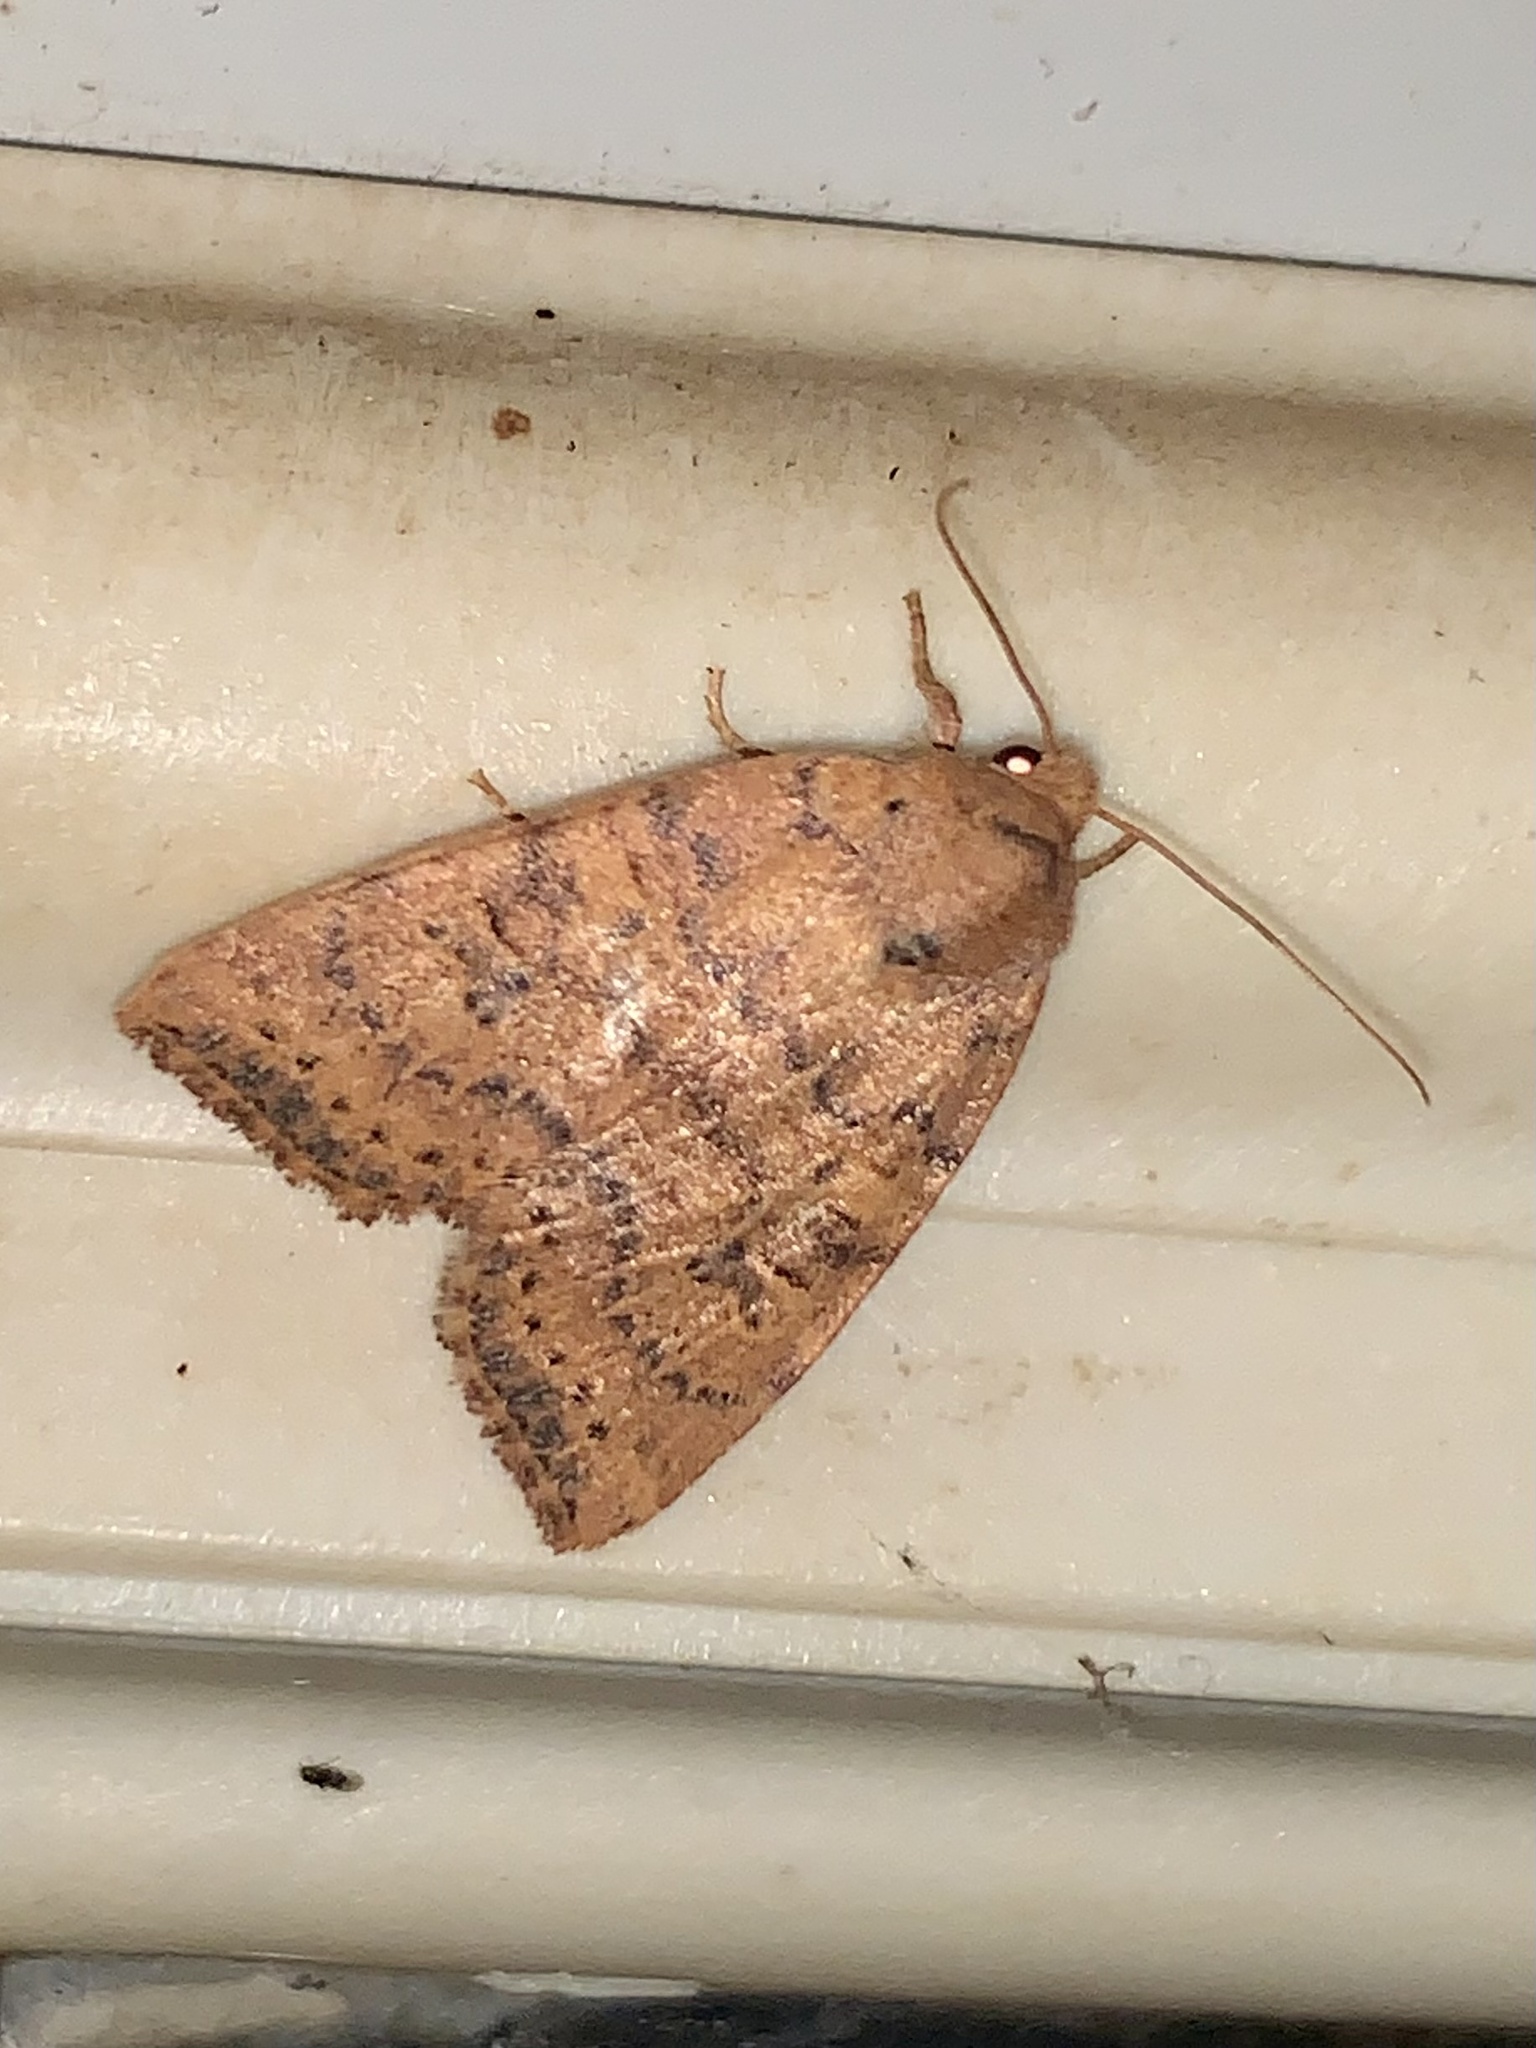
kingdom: Animalia
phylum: Arthropoda
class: Insecta
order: Lepidoptera
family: Noctuidae
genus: Anathix
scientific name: Anathix ralla
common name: Dotted sallow
